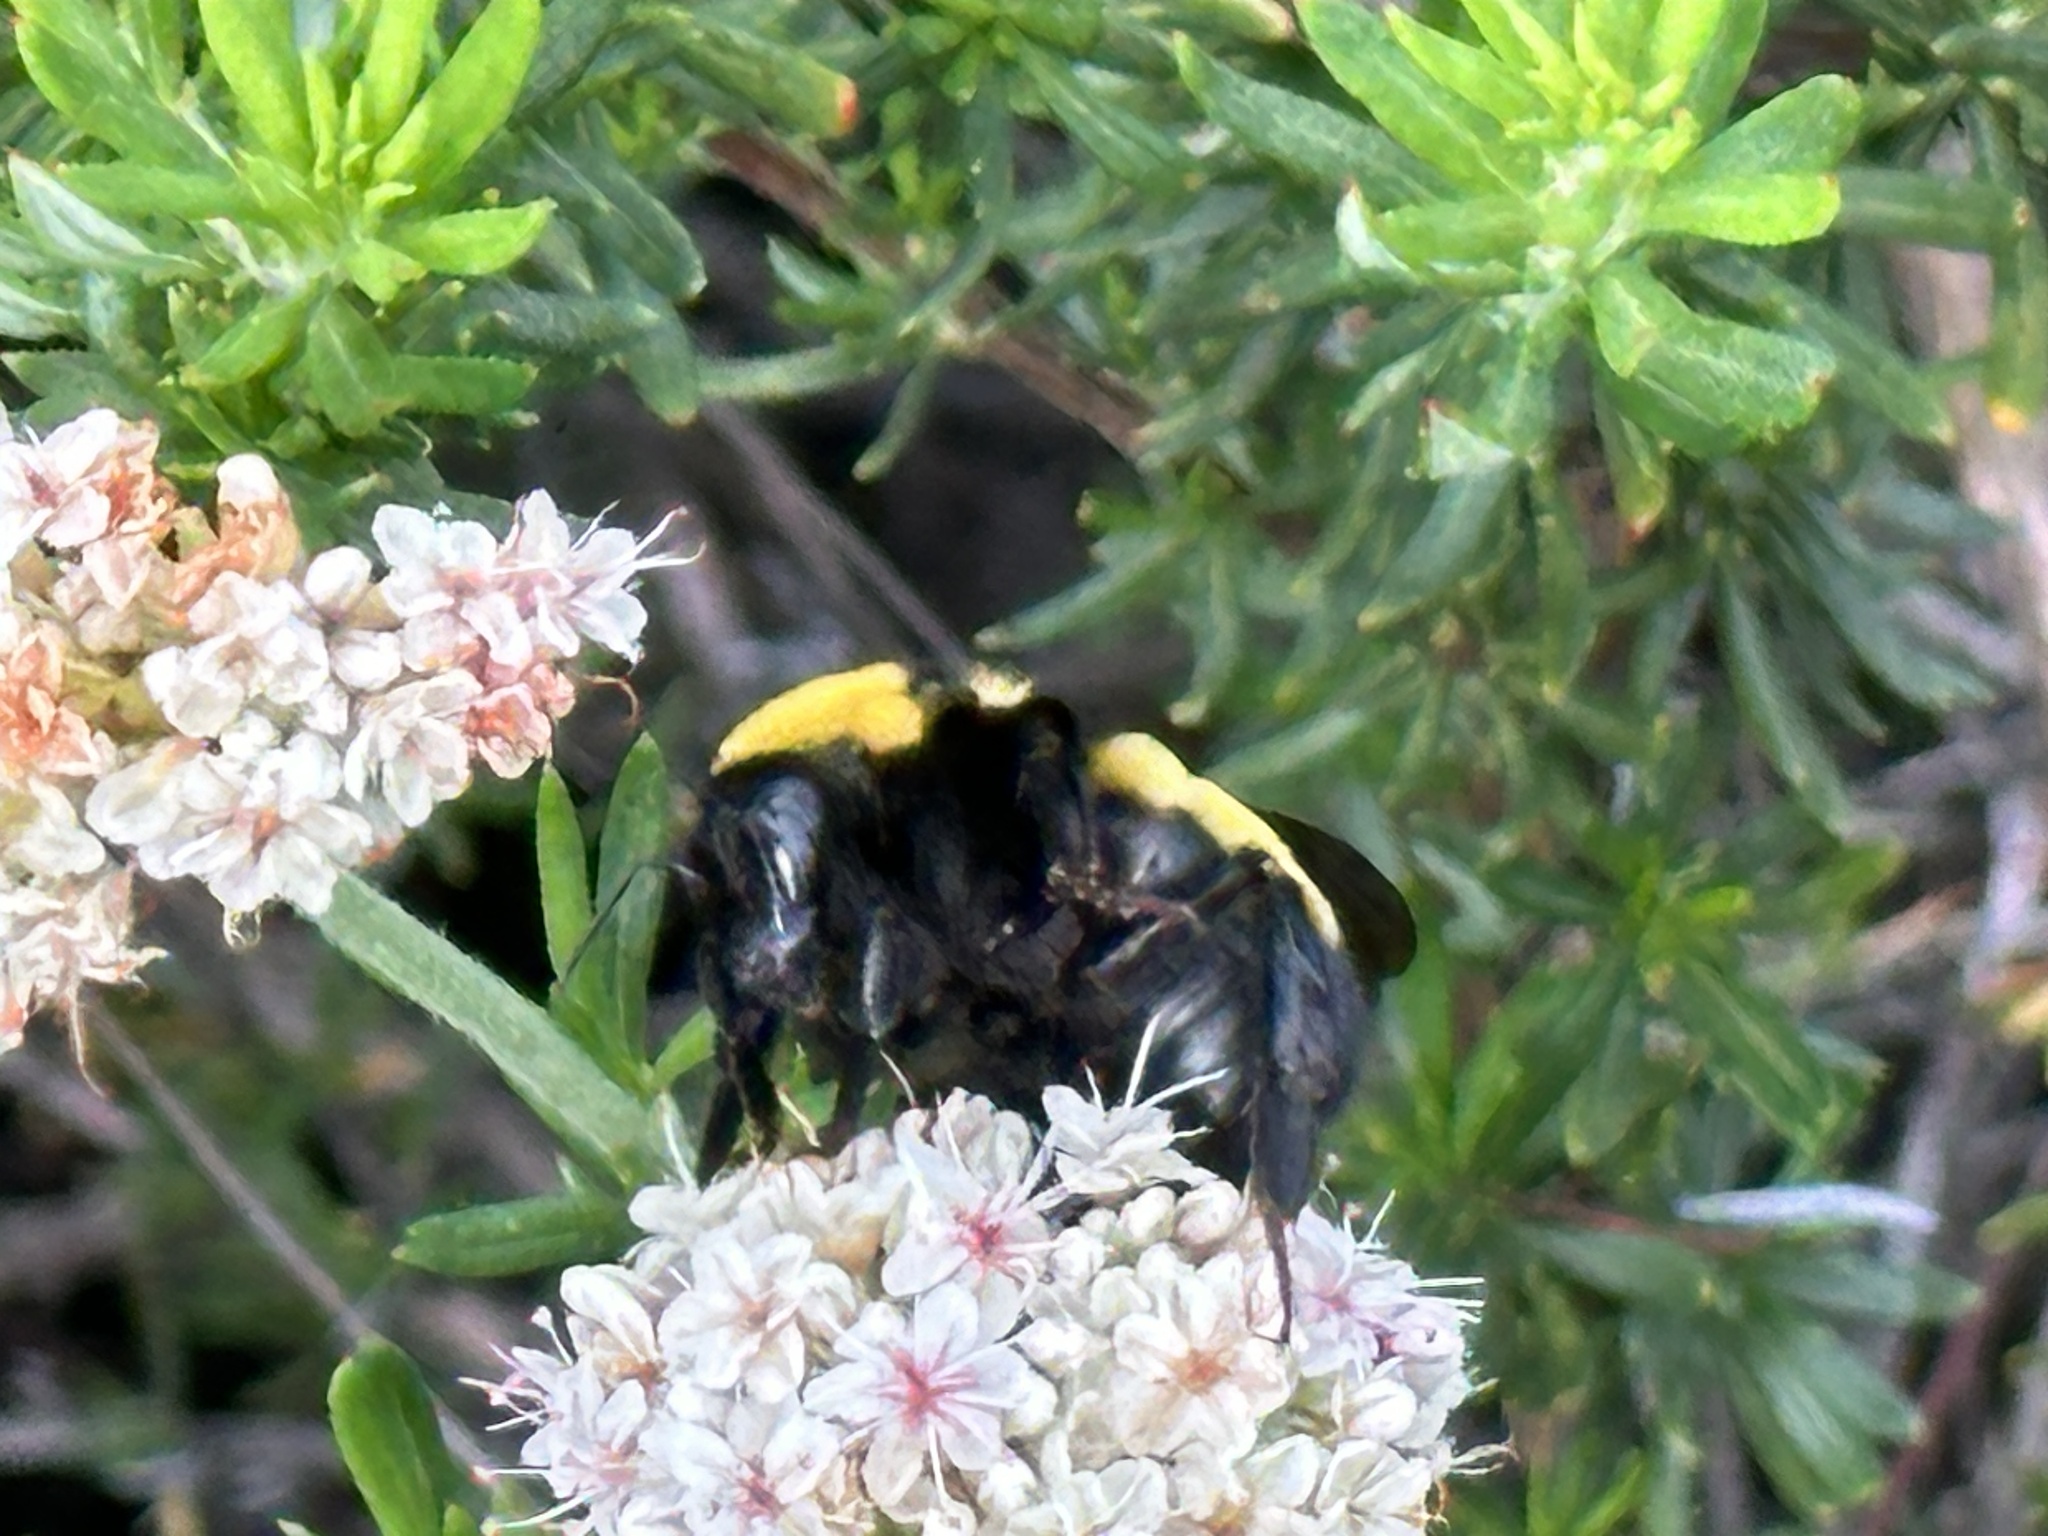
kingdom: Animalia
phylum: Arthropoda
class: Insecta
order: Hymenoptera
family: Apidae
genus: Bombus
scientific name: Bombus sonorus
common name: Sonoran bumble bee
